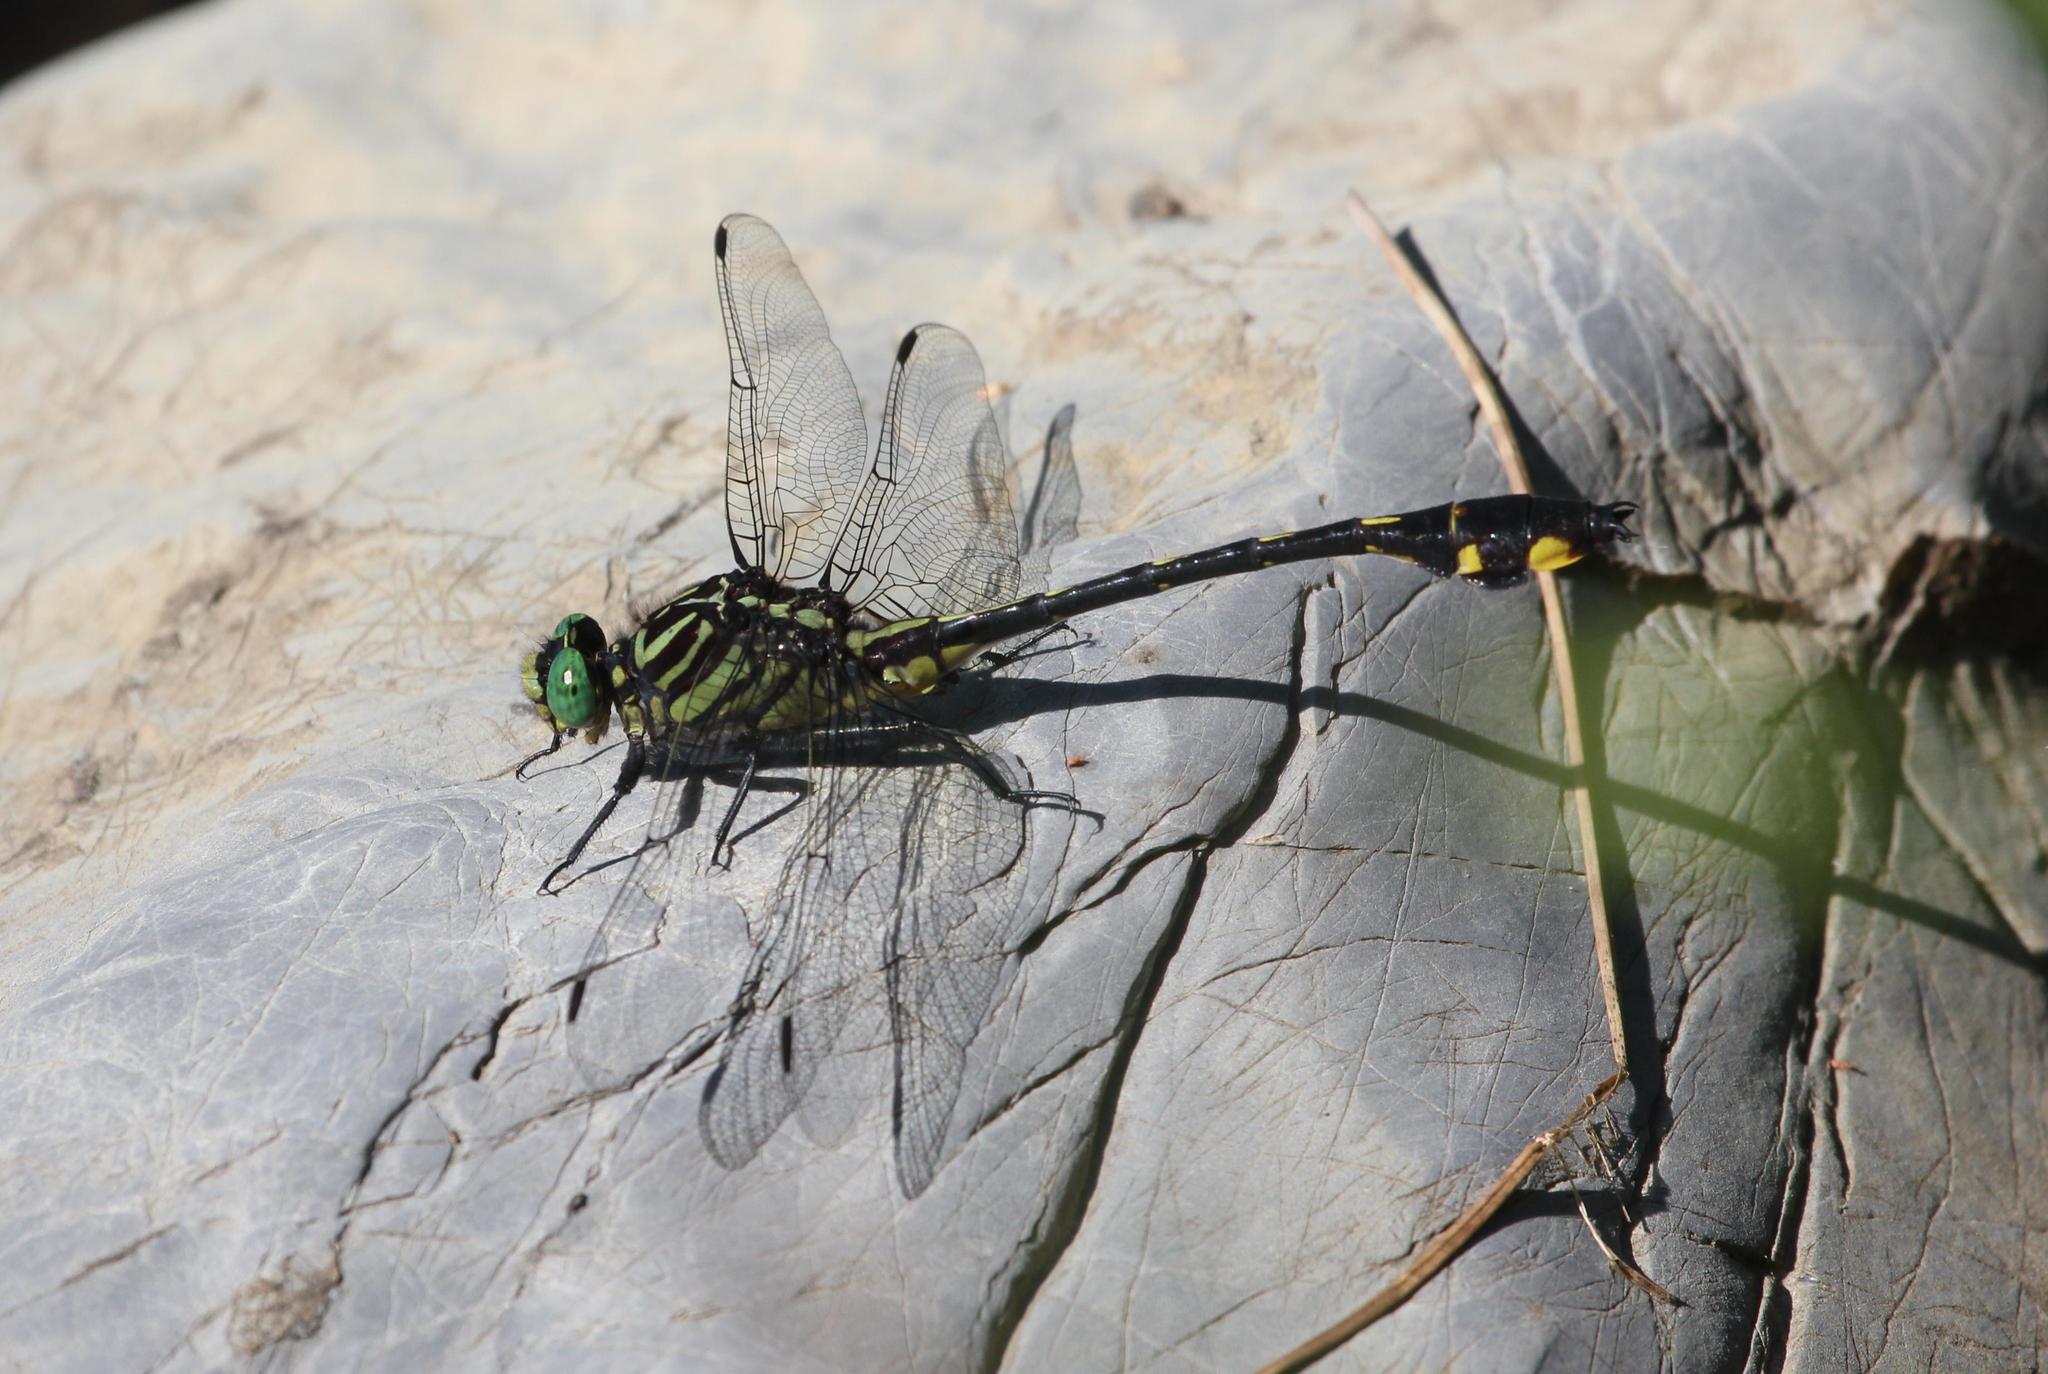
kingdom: Animalia
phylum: Arthropoda
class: Insecta
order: Odonata
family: Gomphidae
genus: Gomphurus
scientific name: Gomphurus modestus
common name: Gulf coast clubtail
